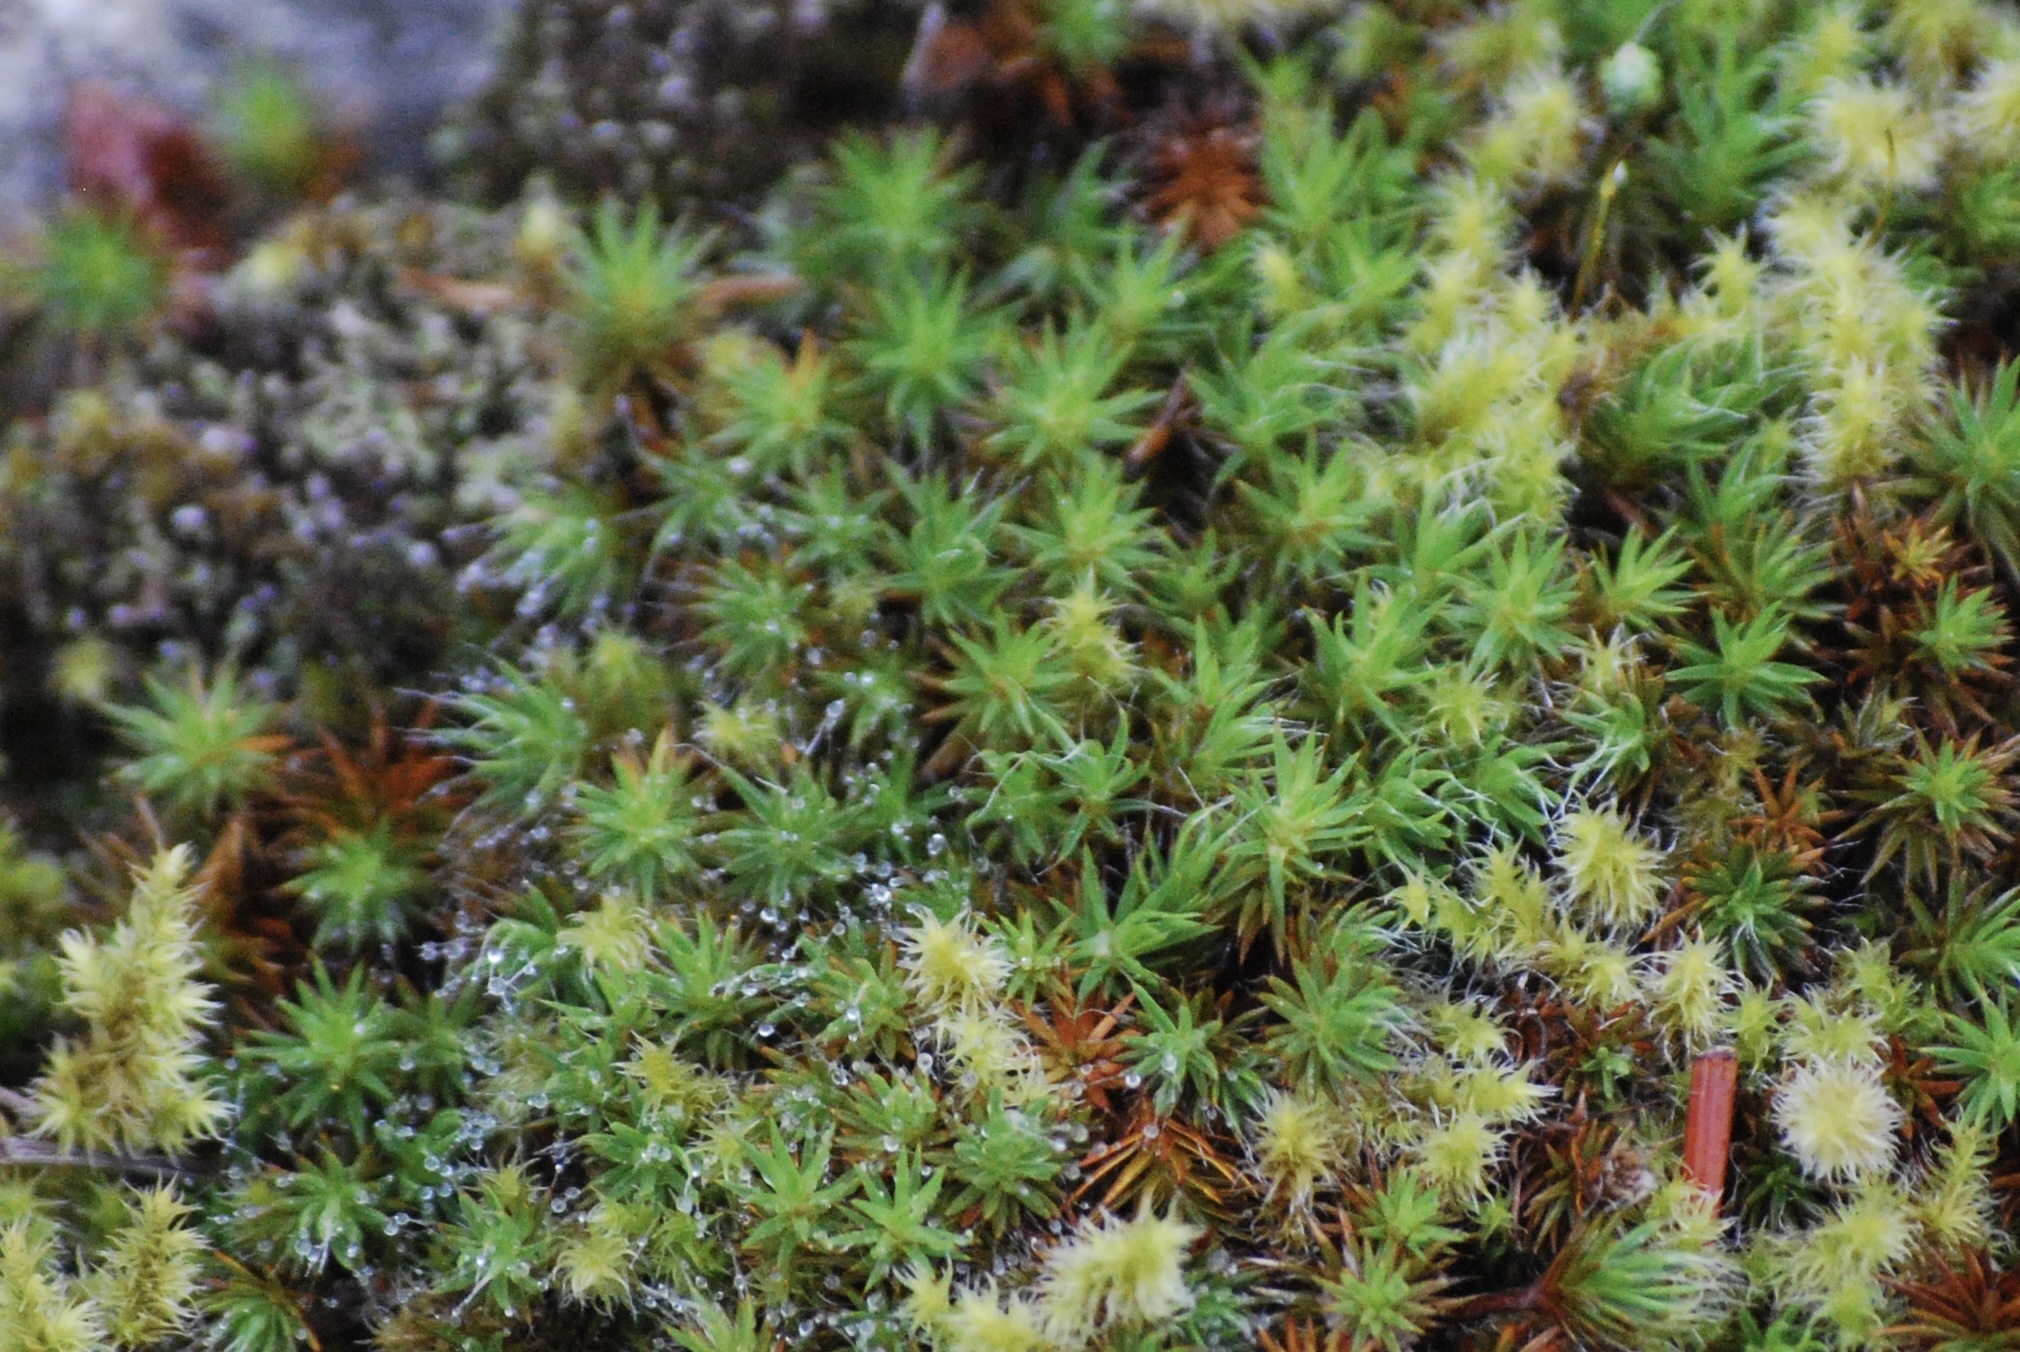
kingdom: Plantae
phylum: Bryophyta
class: Polytrichopsida
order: Polytrichales
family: Polytrichaceae
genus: Polytrichum
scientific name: Polytrichum piliferum
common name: Bristly haircap
